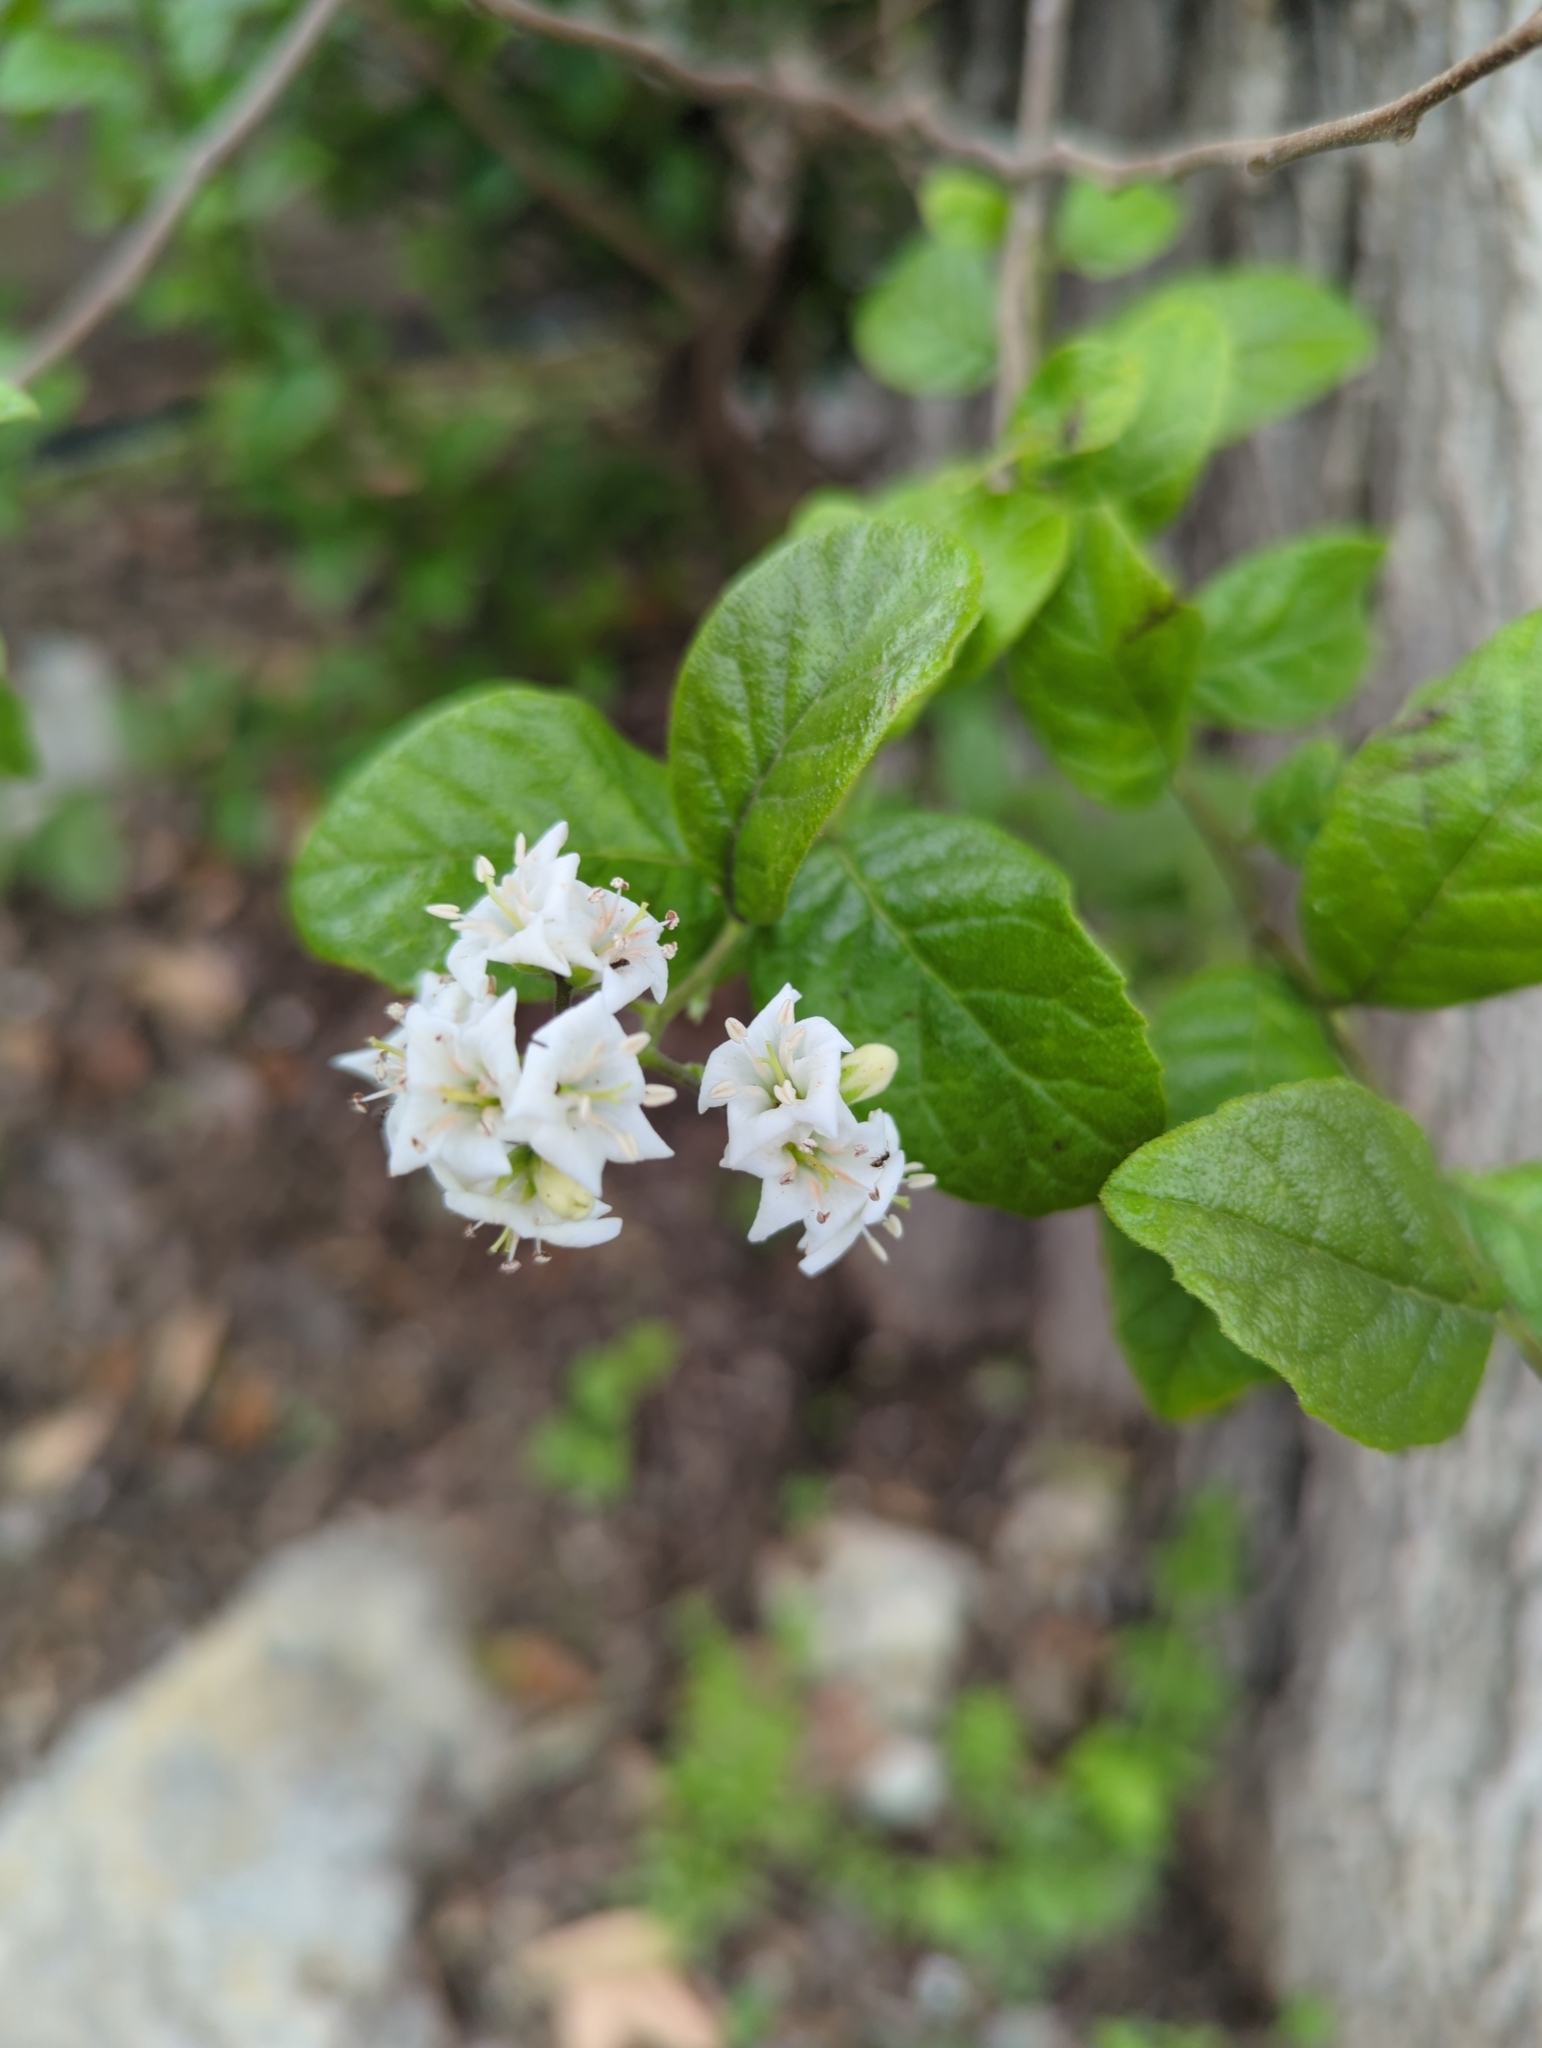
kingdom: Plantae
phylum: Tracheophyta
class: Magnoliopsida
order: Boraginales
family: Ehretiaceae
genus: Ehretia
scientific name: Ehretia anacua
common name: Sugarberry
